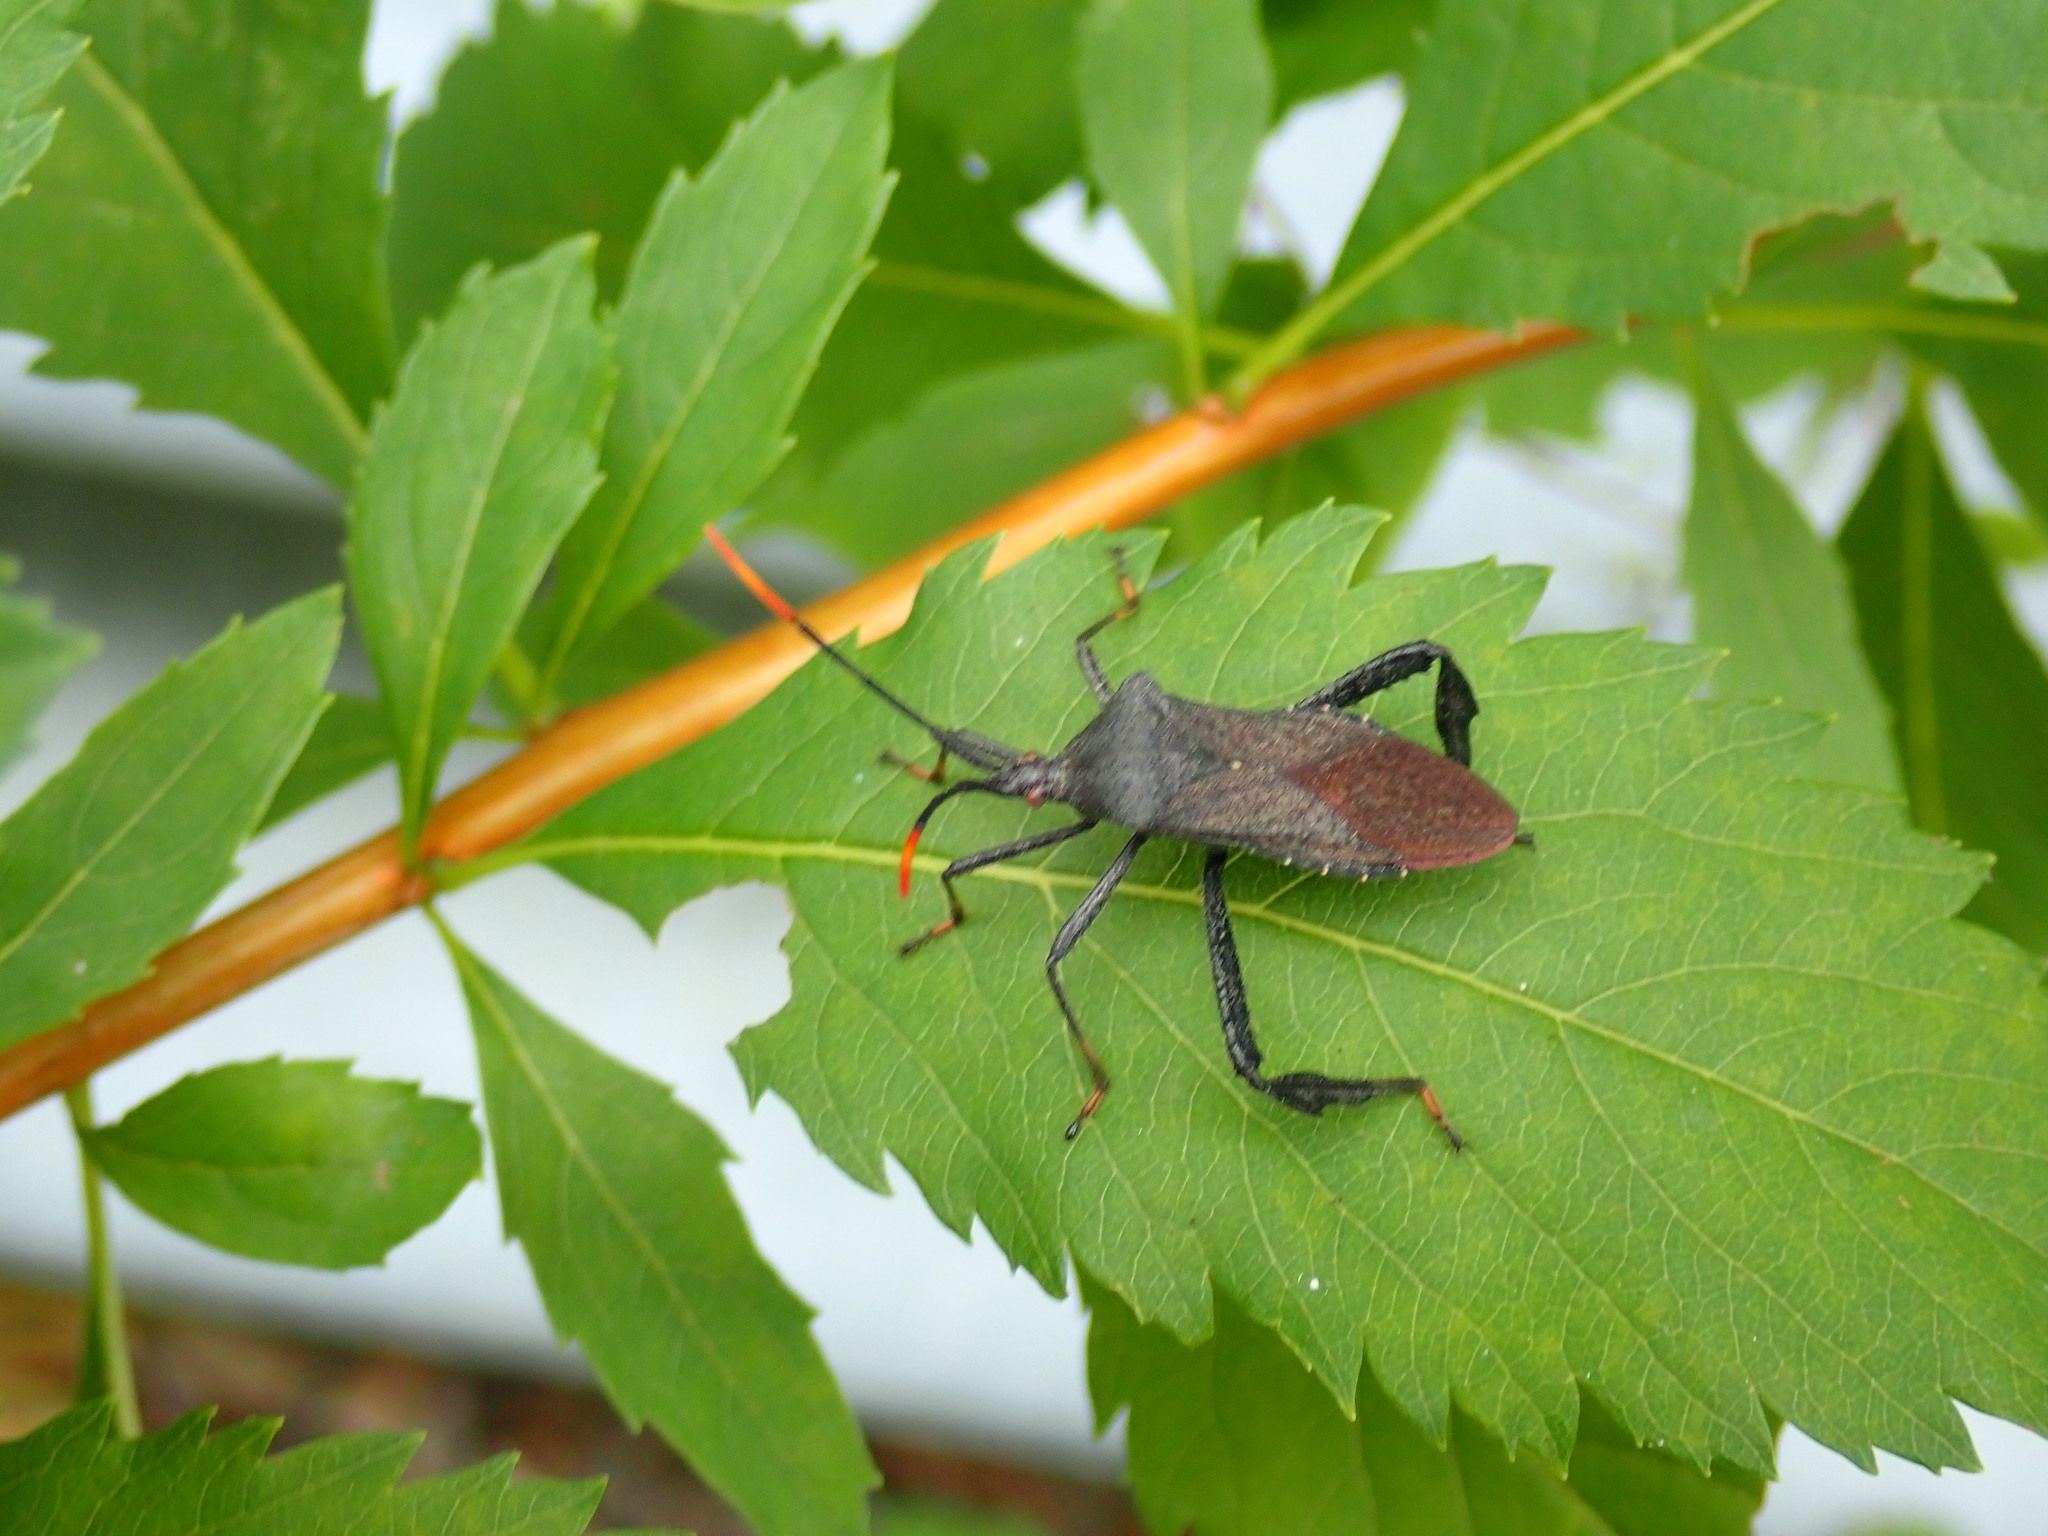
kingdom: Animalia
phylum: Arthropoda
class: Insecta
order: Hemiptera
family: Coreidae
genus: Acanthocephala
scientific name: Acanthocephala terminalis
